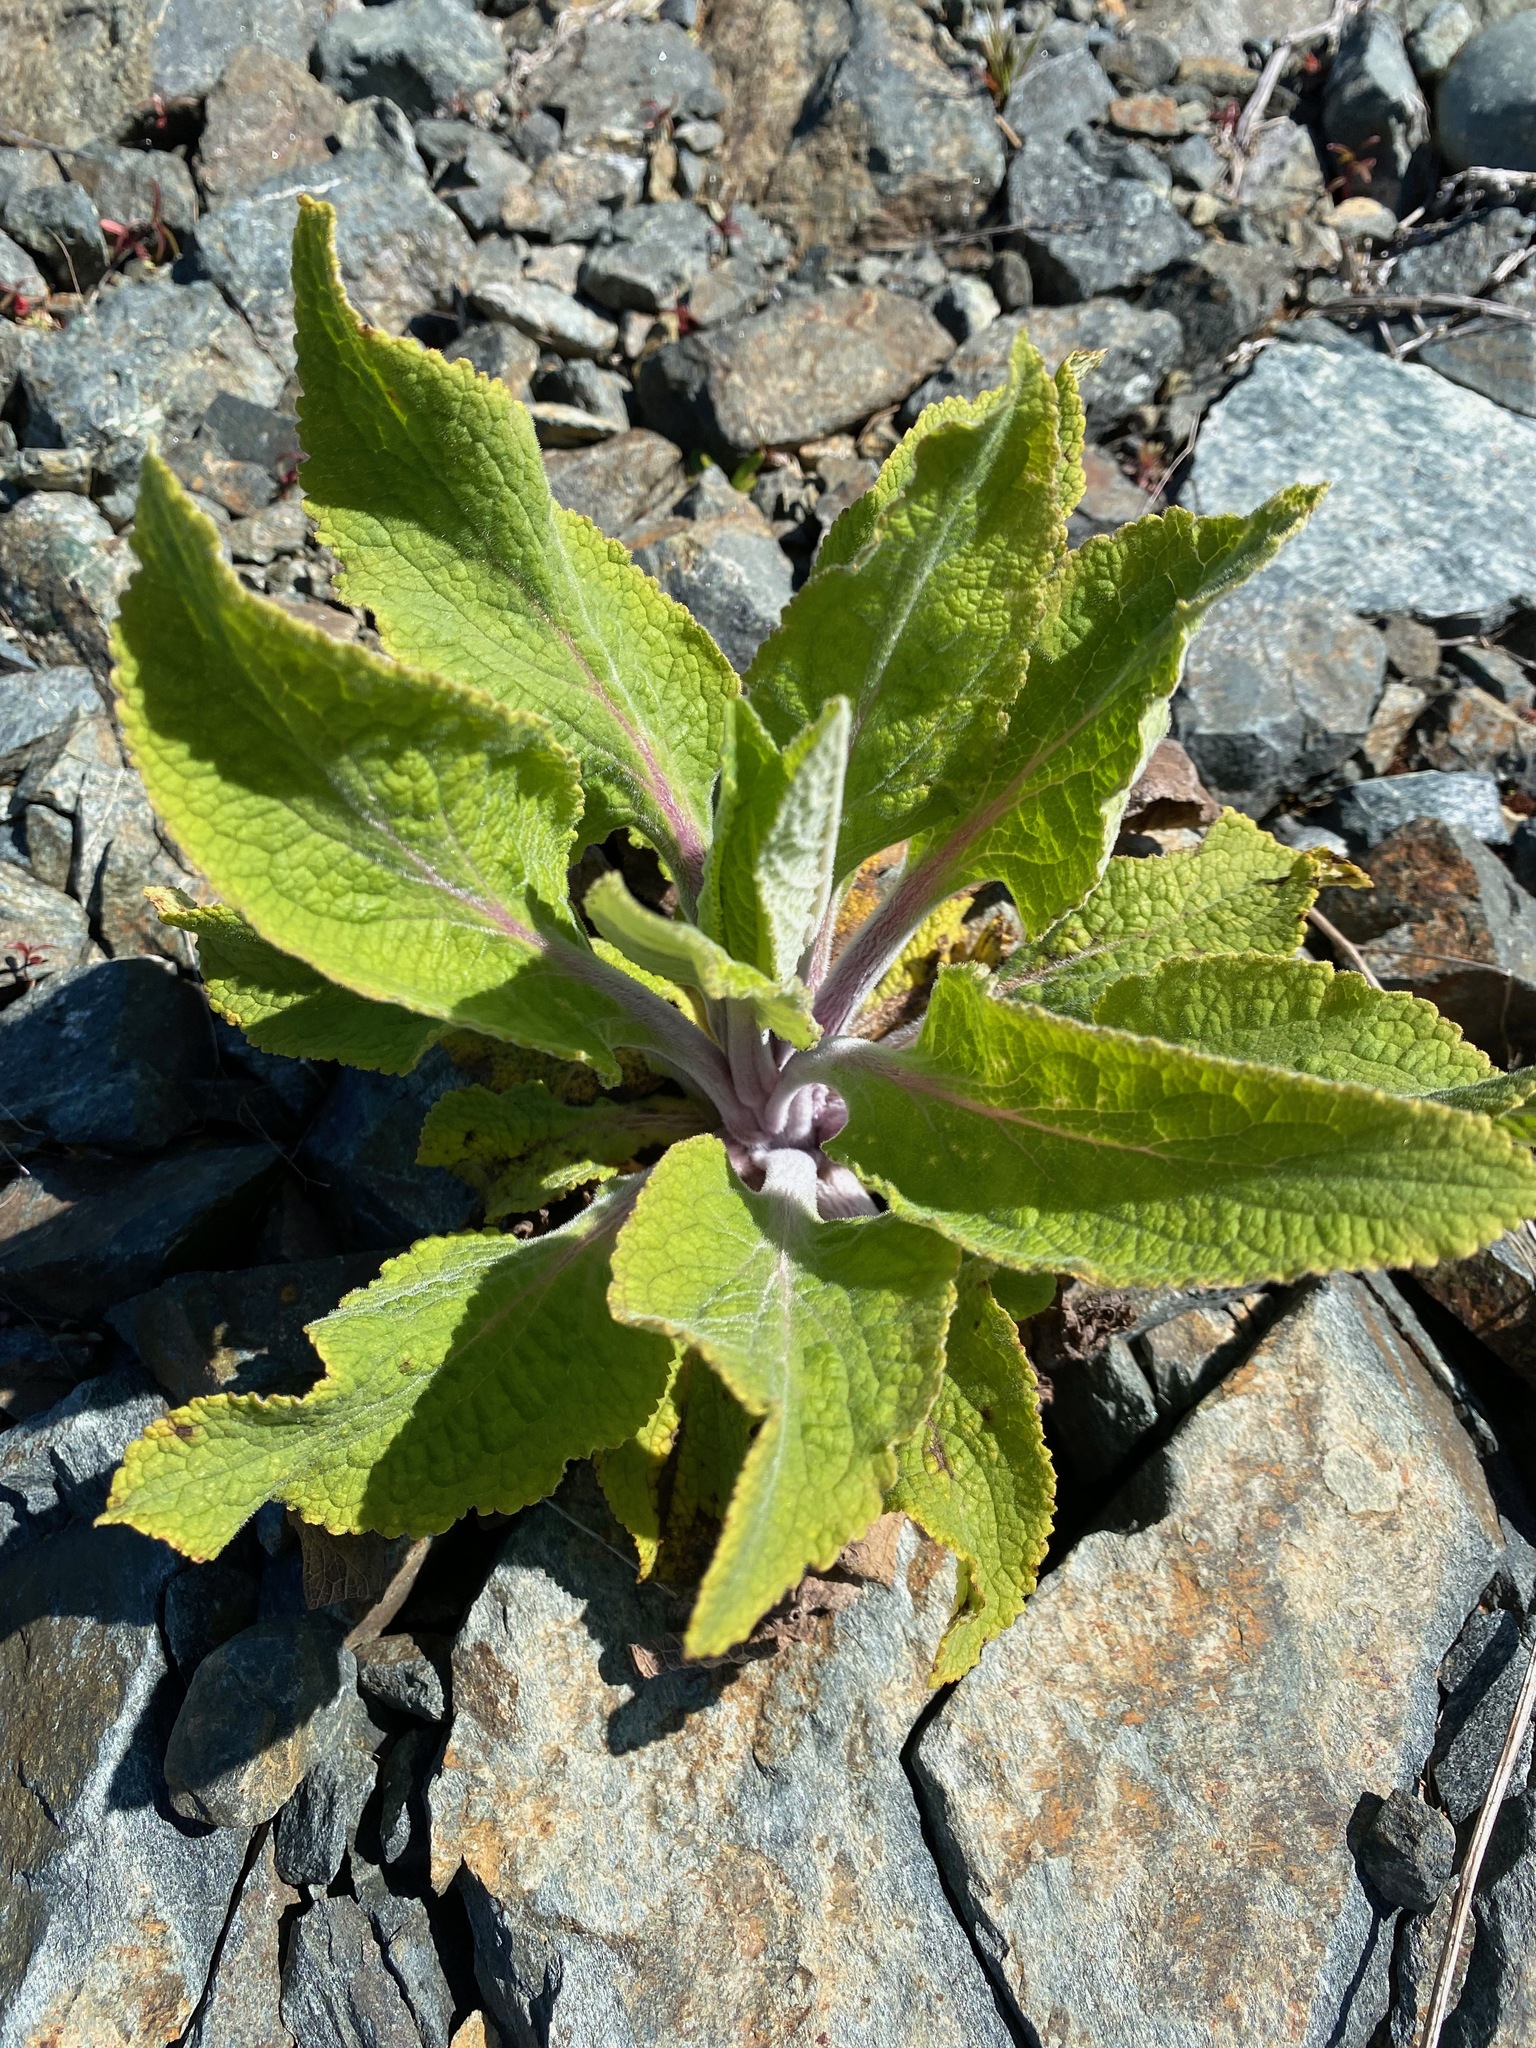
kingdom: Plantae
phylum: Tracheophyta
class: Magnoliopsida
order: Lamiales
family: Plantaginaceae
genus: Digitalis
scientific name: Digitalis purpurea
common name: Foxglove
